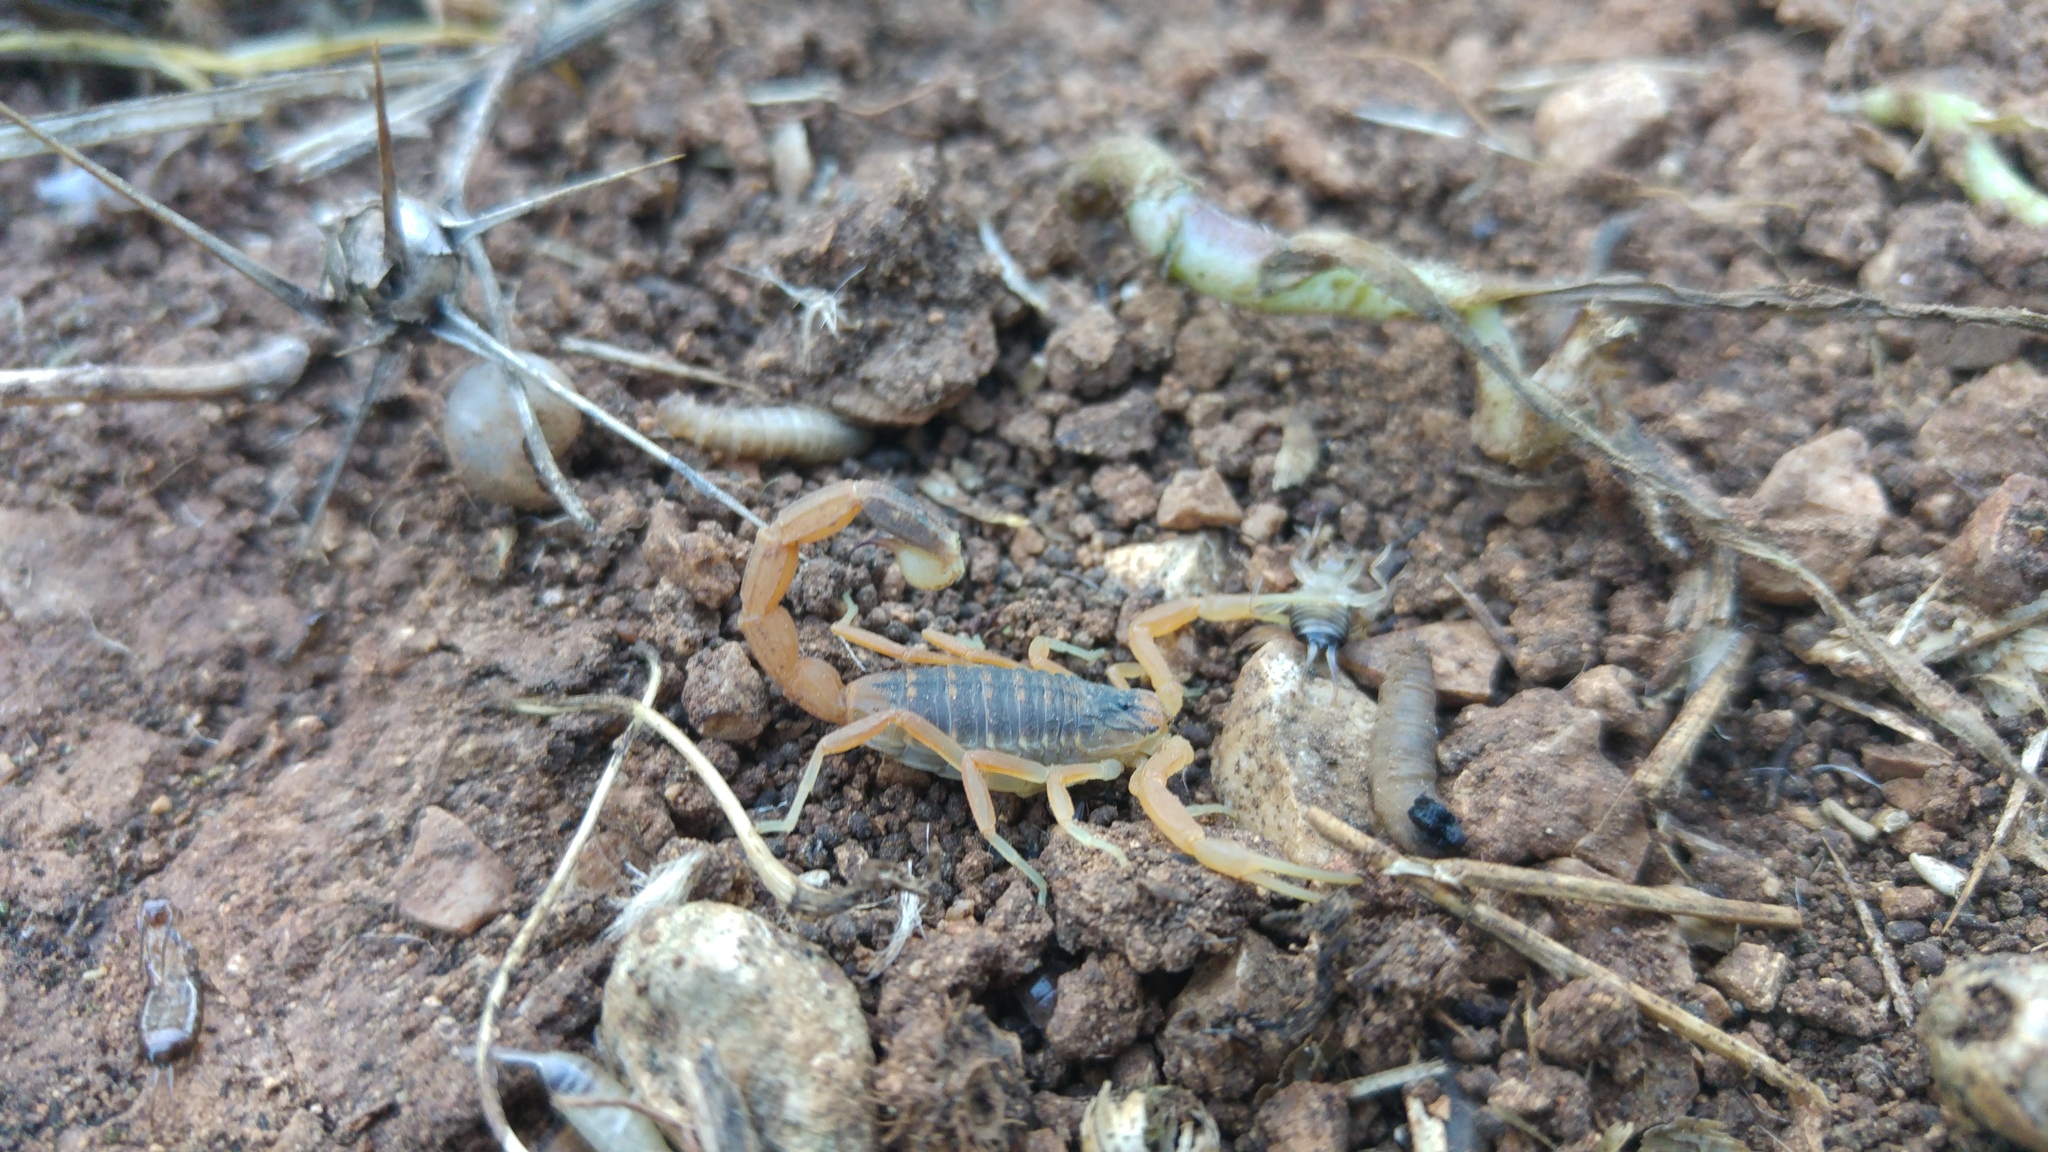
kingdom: Animalia
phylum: Arthropoda
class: Arachnida
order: Scorpiones
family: Buthidae
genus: Leiurus
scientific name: Leiurus hebraeus
